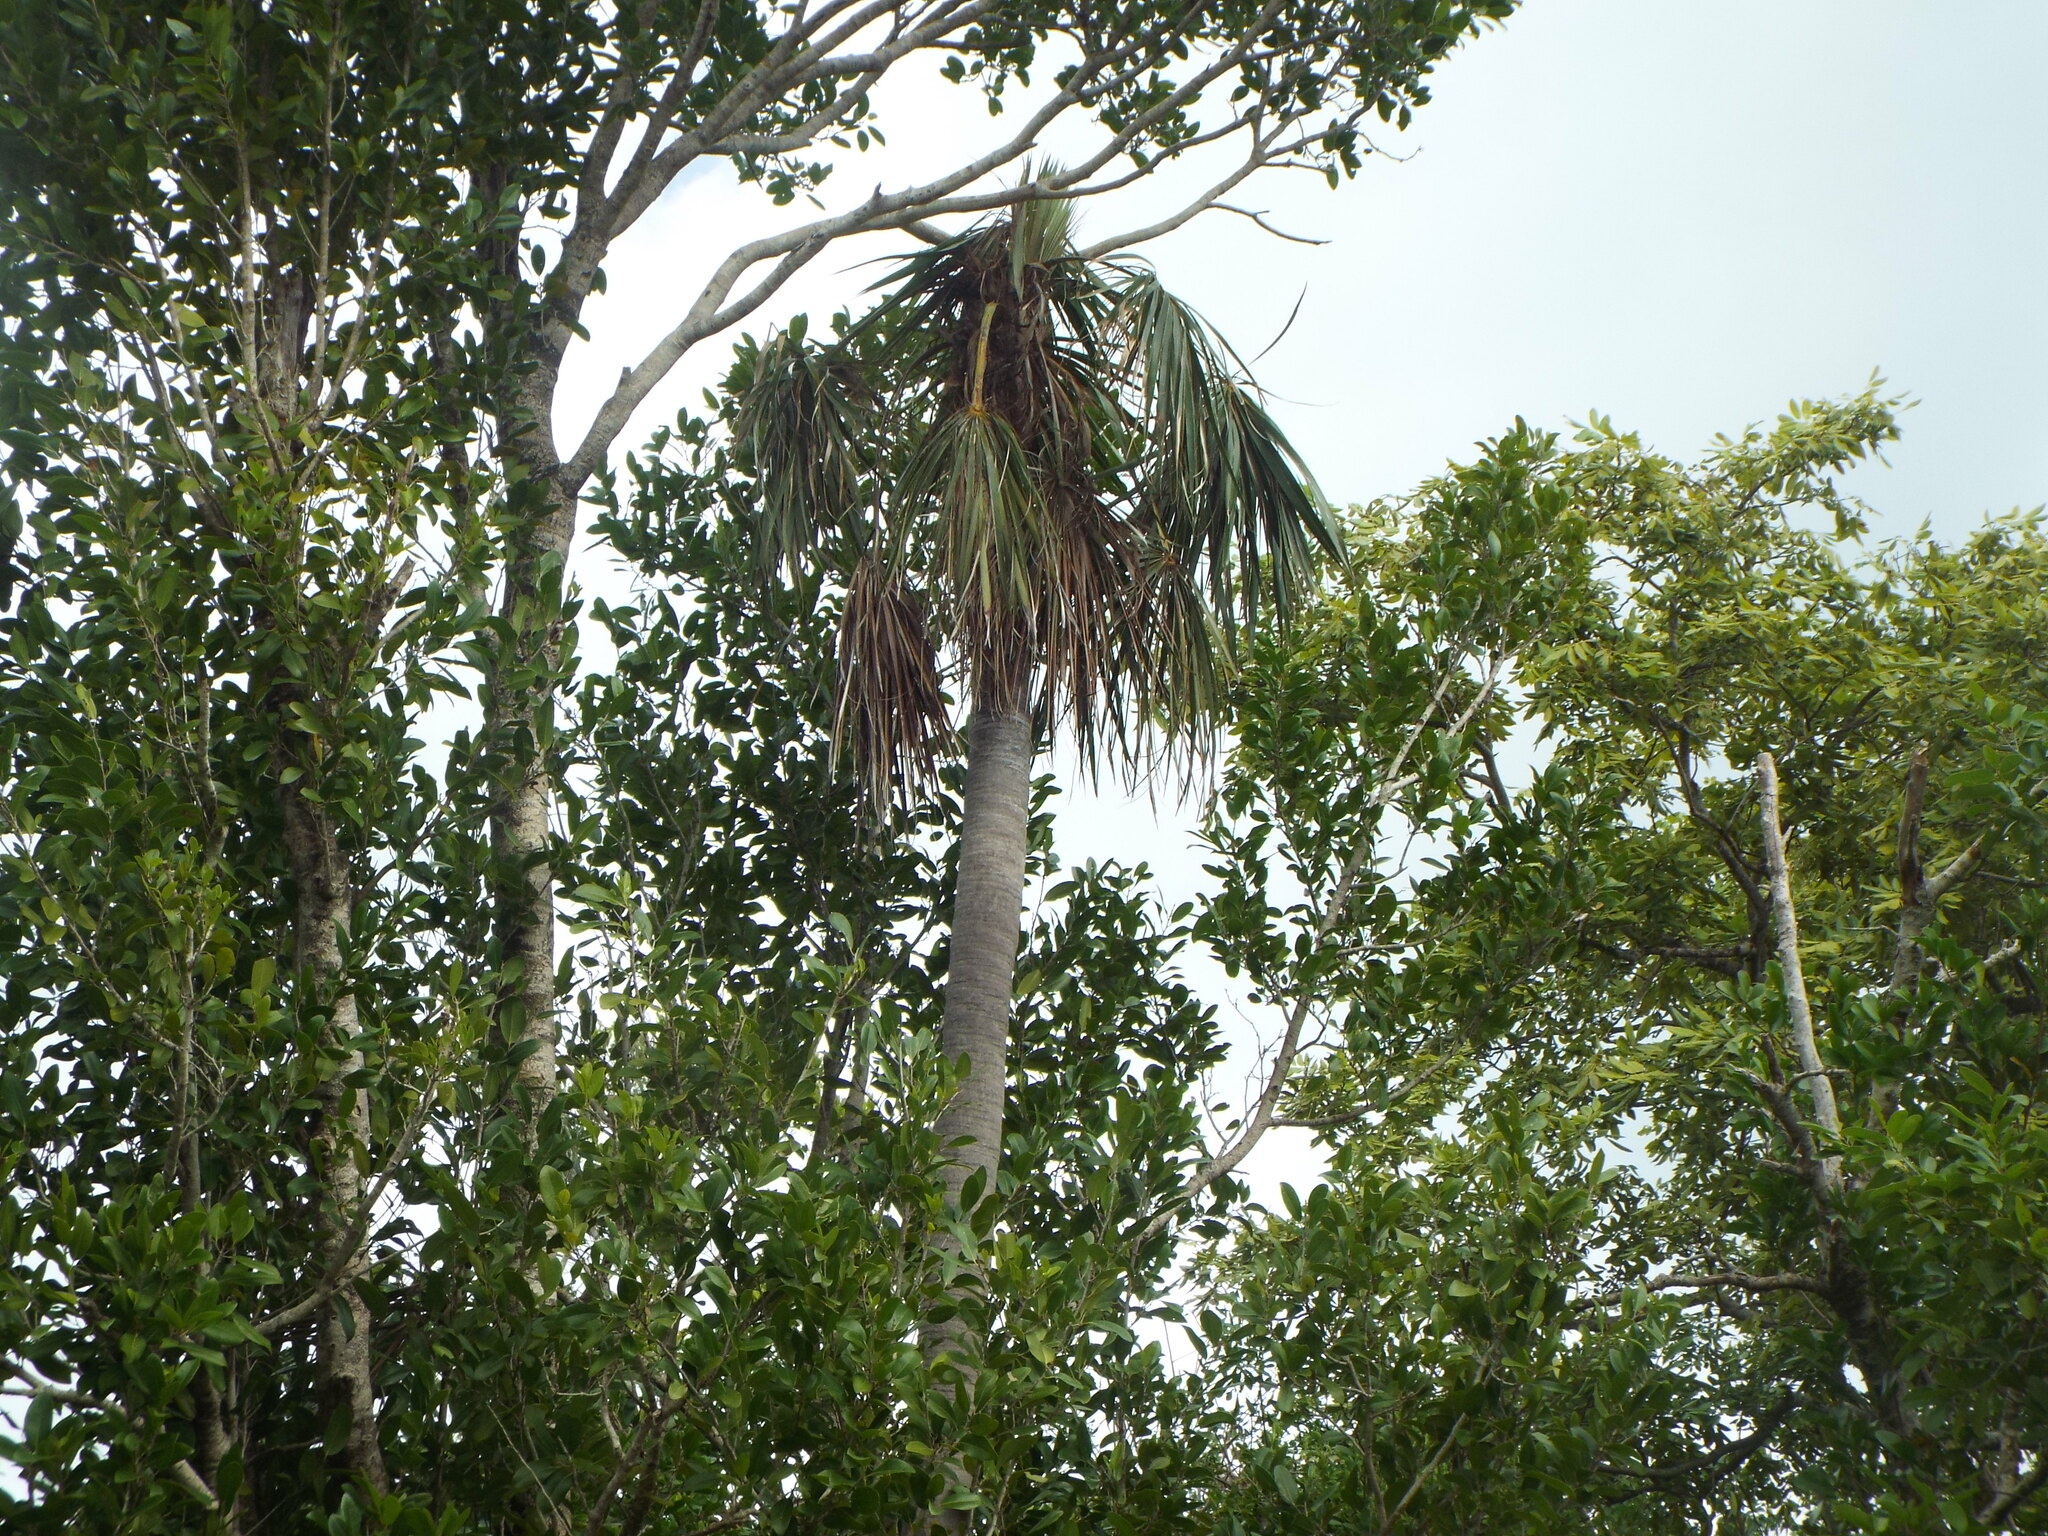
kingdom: Plantae
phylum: Tracheophyta
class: Liliopsida
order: Arecales
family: Arecaceae
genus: Leucothrinax
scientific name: Leucothrinax morrisii
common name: Key palm
